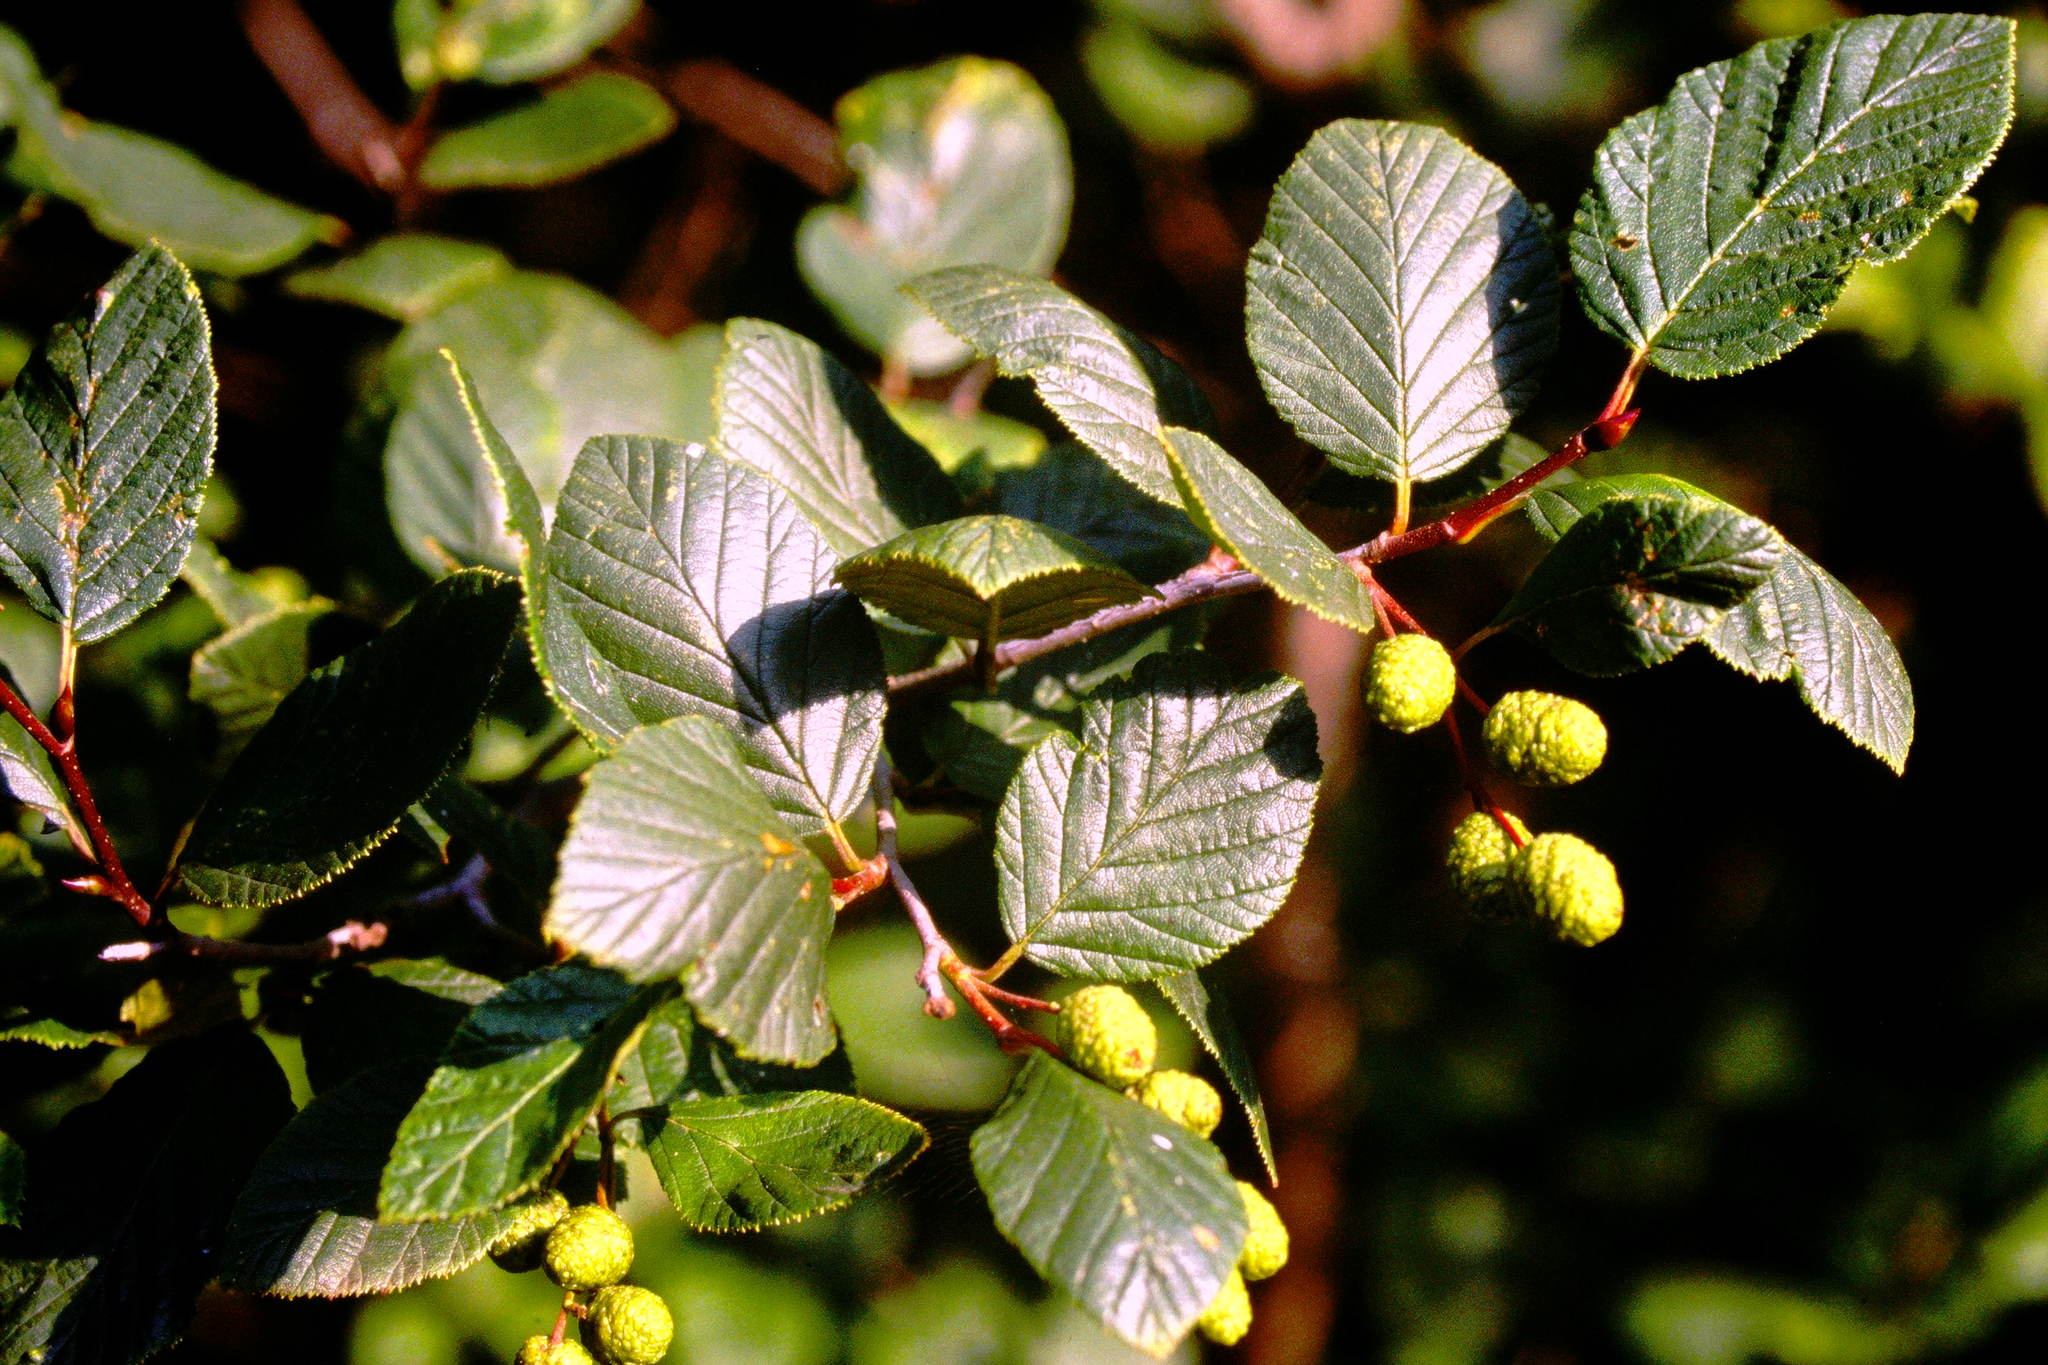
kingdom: Plantae
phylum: Tracheophyta
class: Magnoliopsida
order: Fagales
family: Betulaceae
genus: Alnus
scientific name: Alnus alnobetula
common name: Green alder
